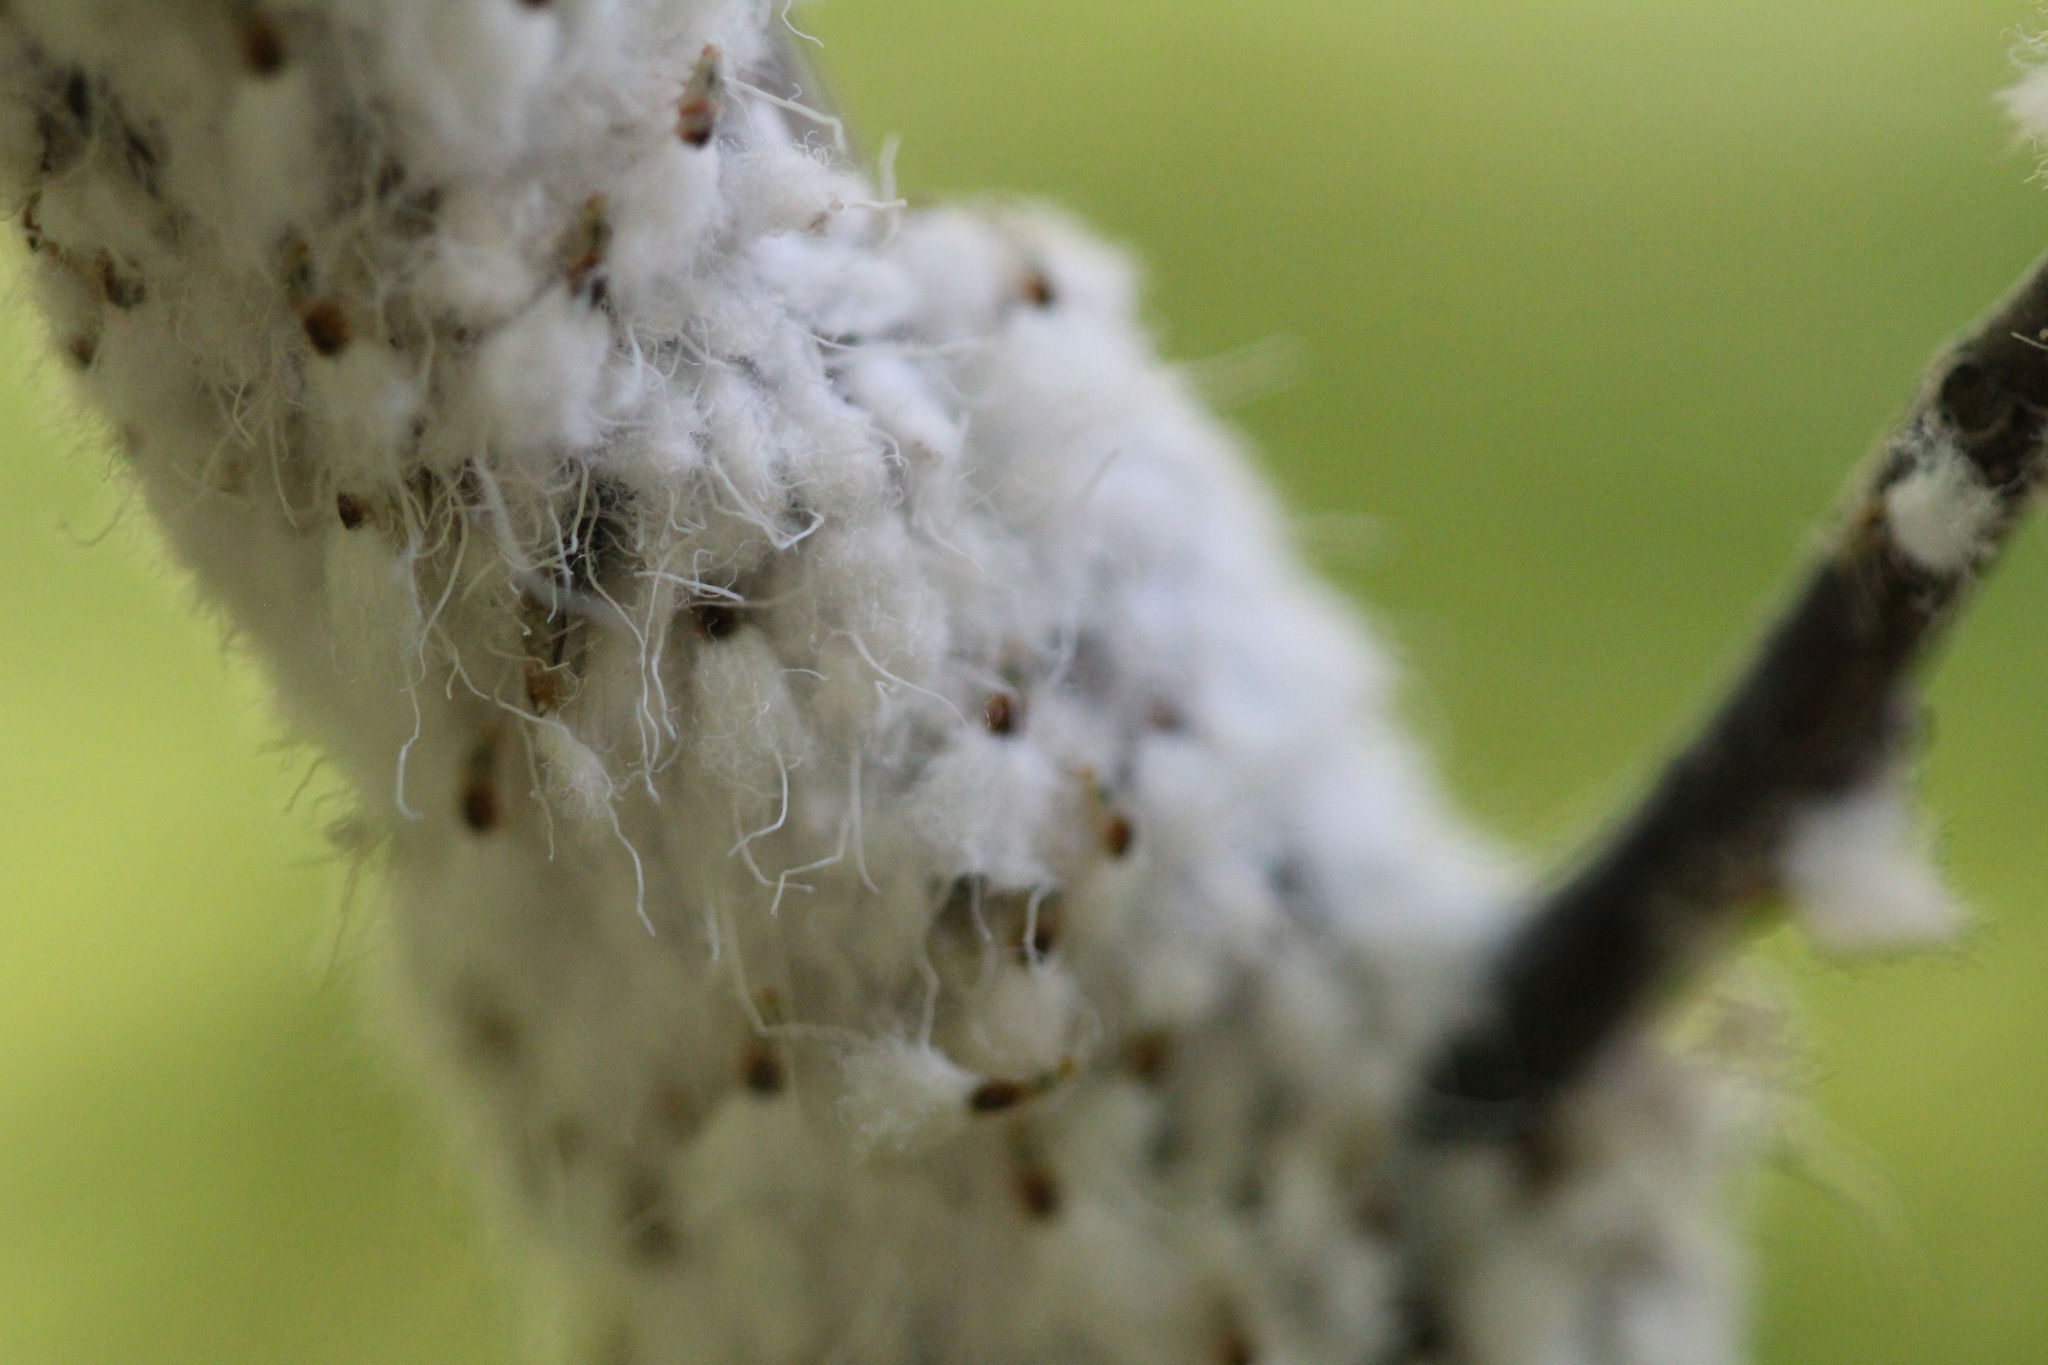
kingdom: Animalia
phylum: Arthropoda
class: Insecta
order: Hemiptera
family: Aphididae
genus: Grylloprociphilus
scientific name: Grylloprociphilus imbricator
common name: Beech blight aphid
